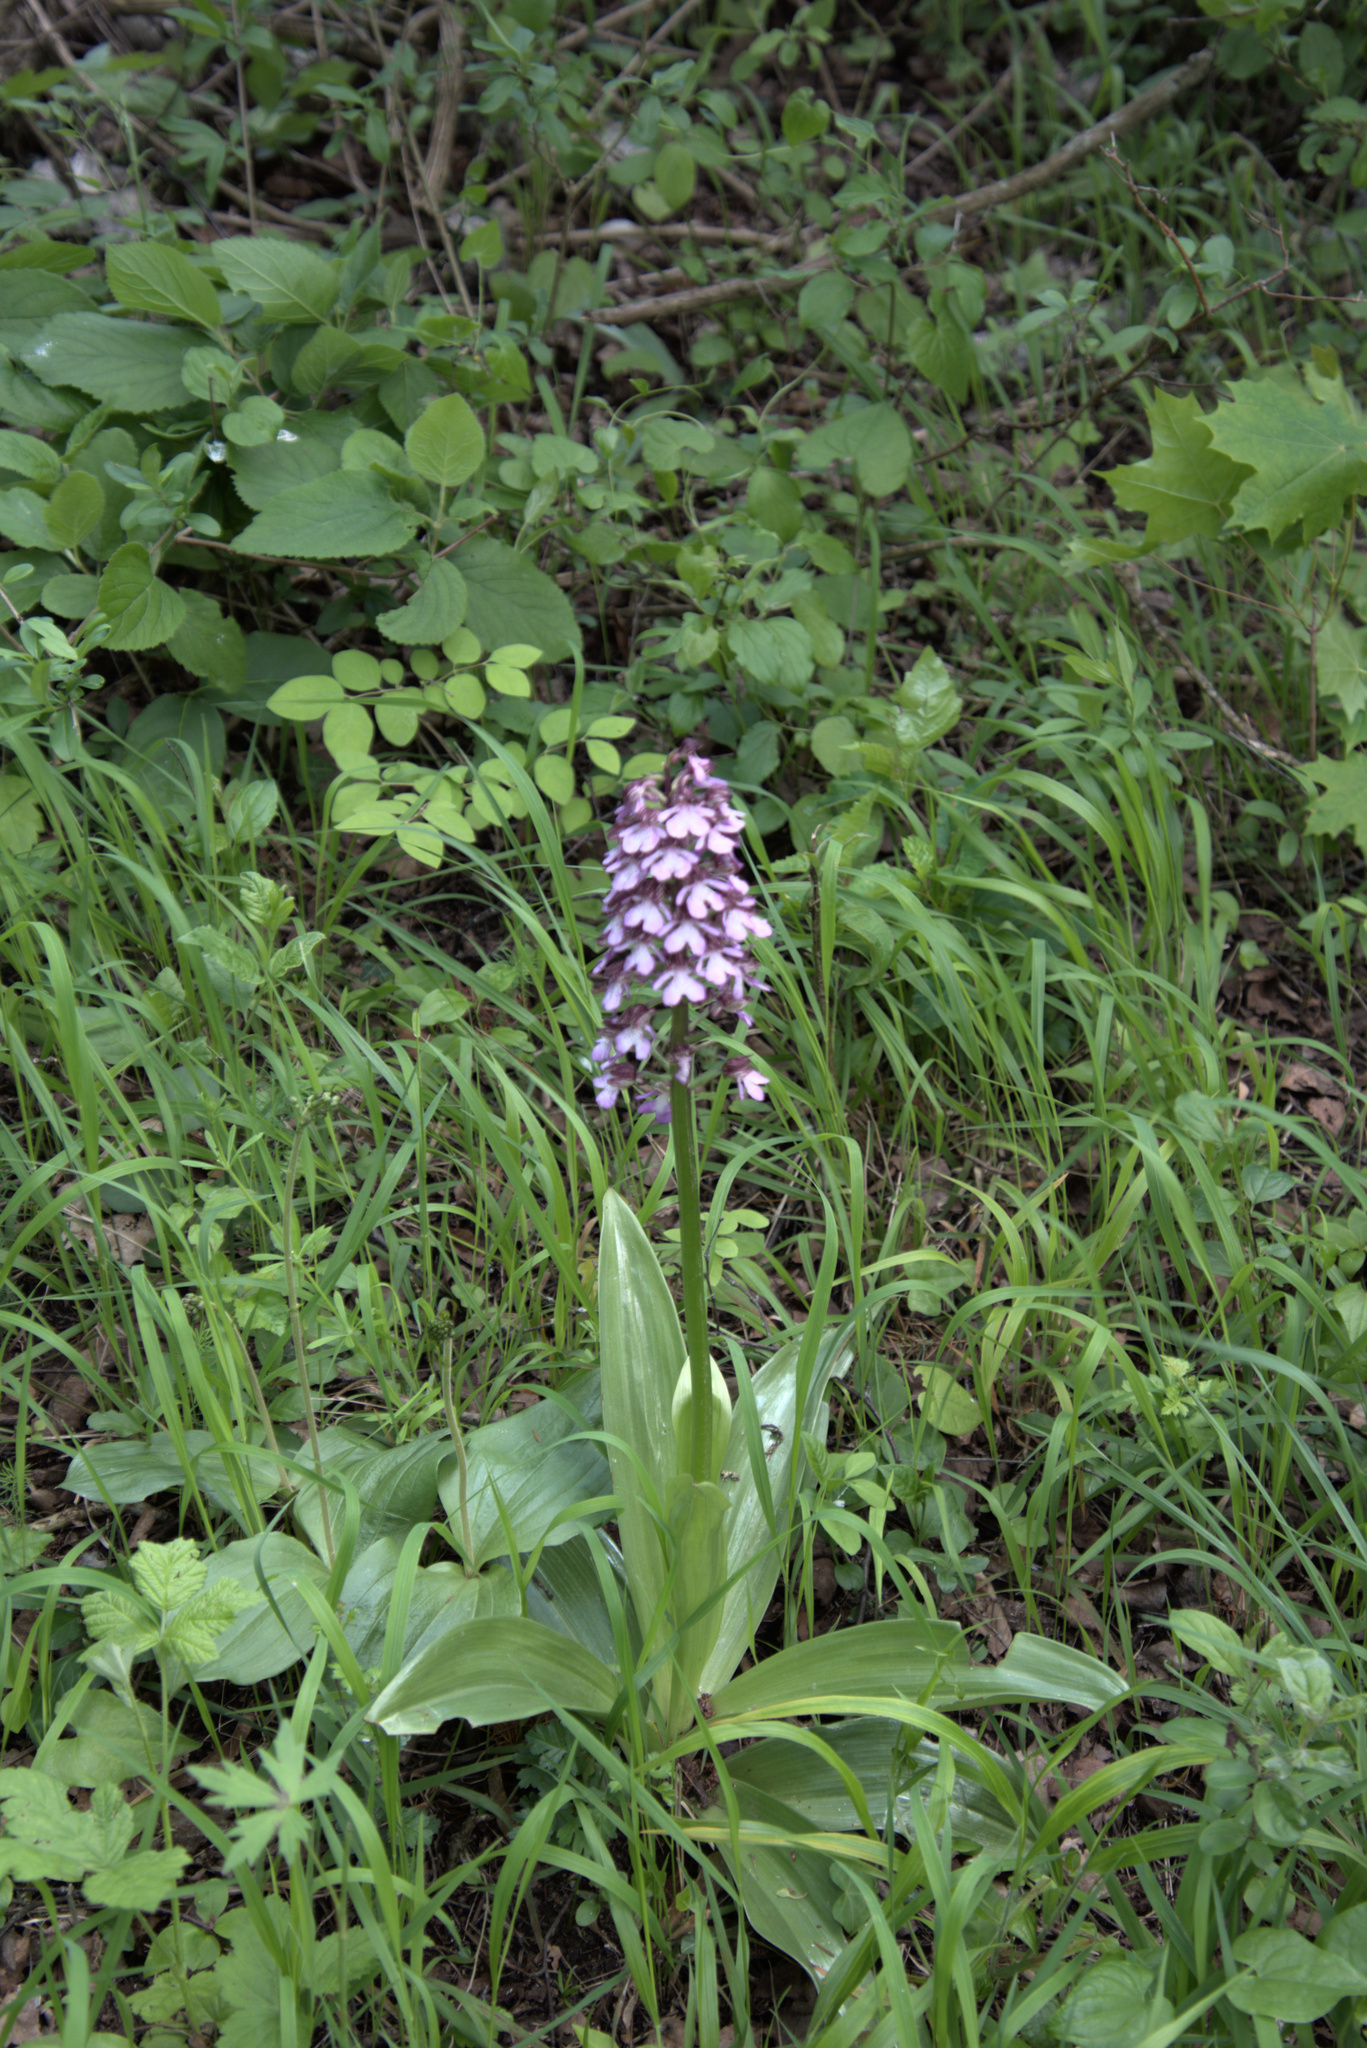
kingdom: Plantae
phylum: Tracheophyta
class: Liliopsida
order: Asparagales
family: Orchidaceae
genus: Orchis
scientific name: Orchis purpurea
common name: Lady orchid
